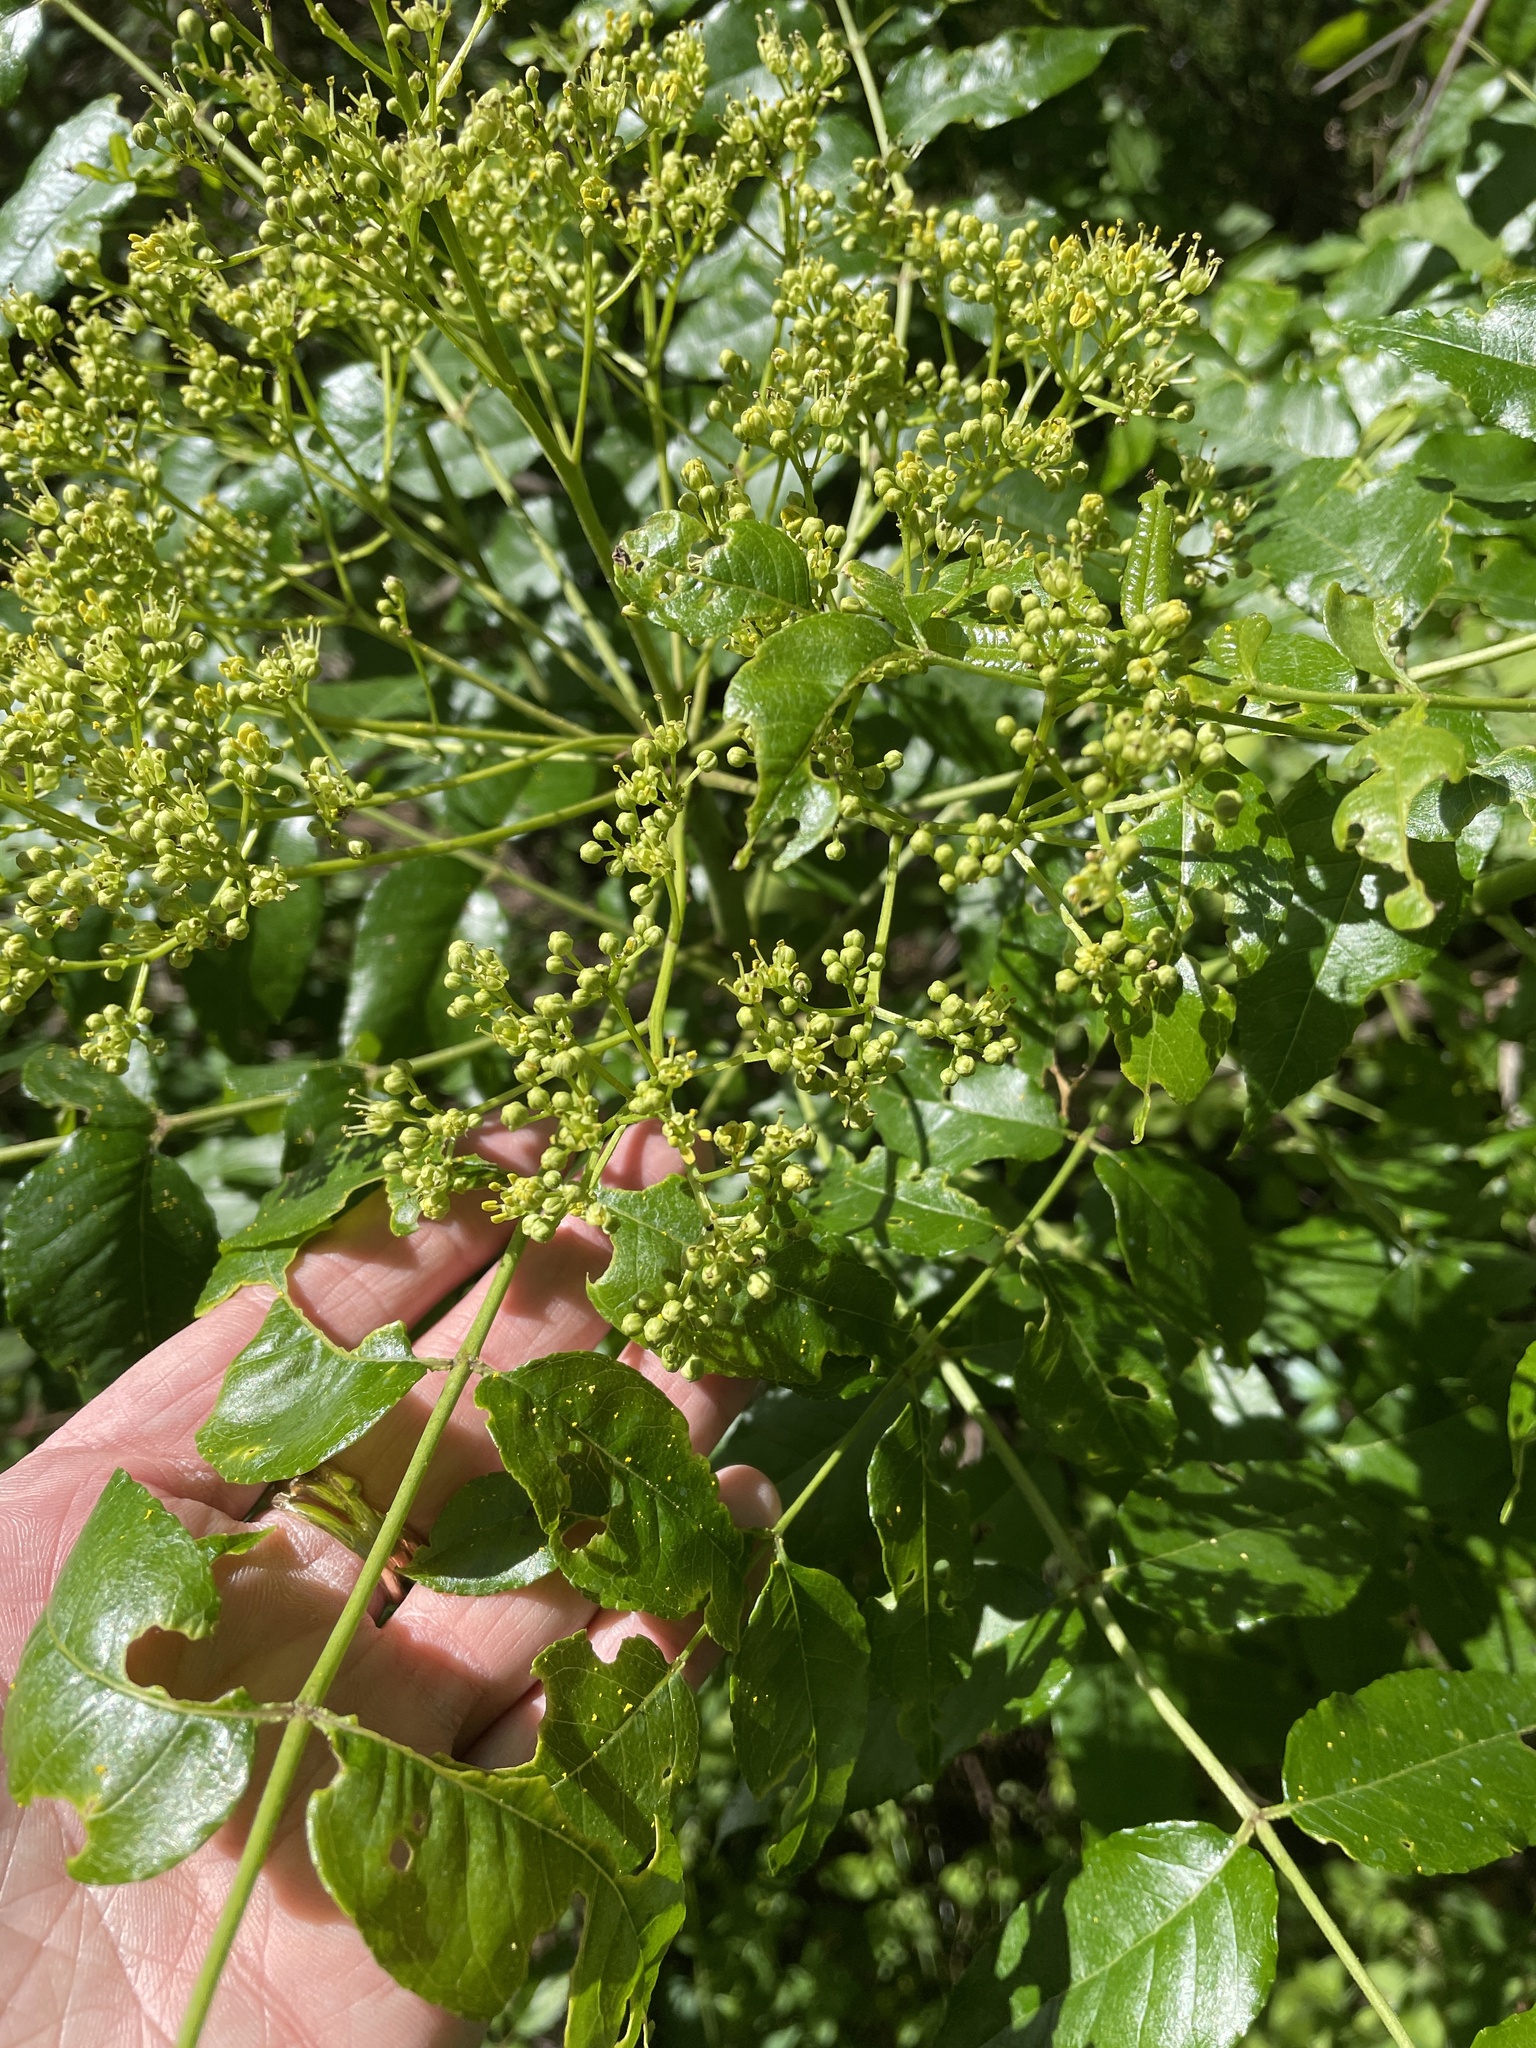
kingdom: Plantae
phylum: Tracheophyta
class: Magnoliopsida
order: Sapindales
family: Rutaceae
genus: Zanthoxylum
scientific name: Zanthoxylum clava-herculis
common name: Hercules'-club
